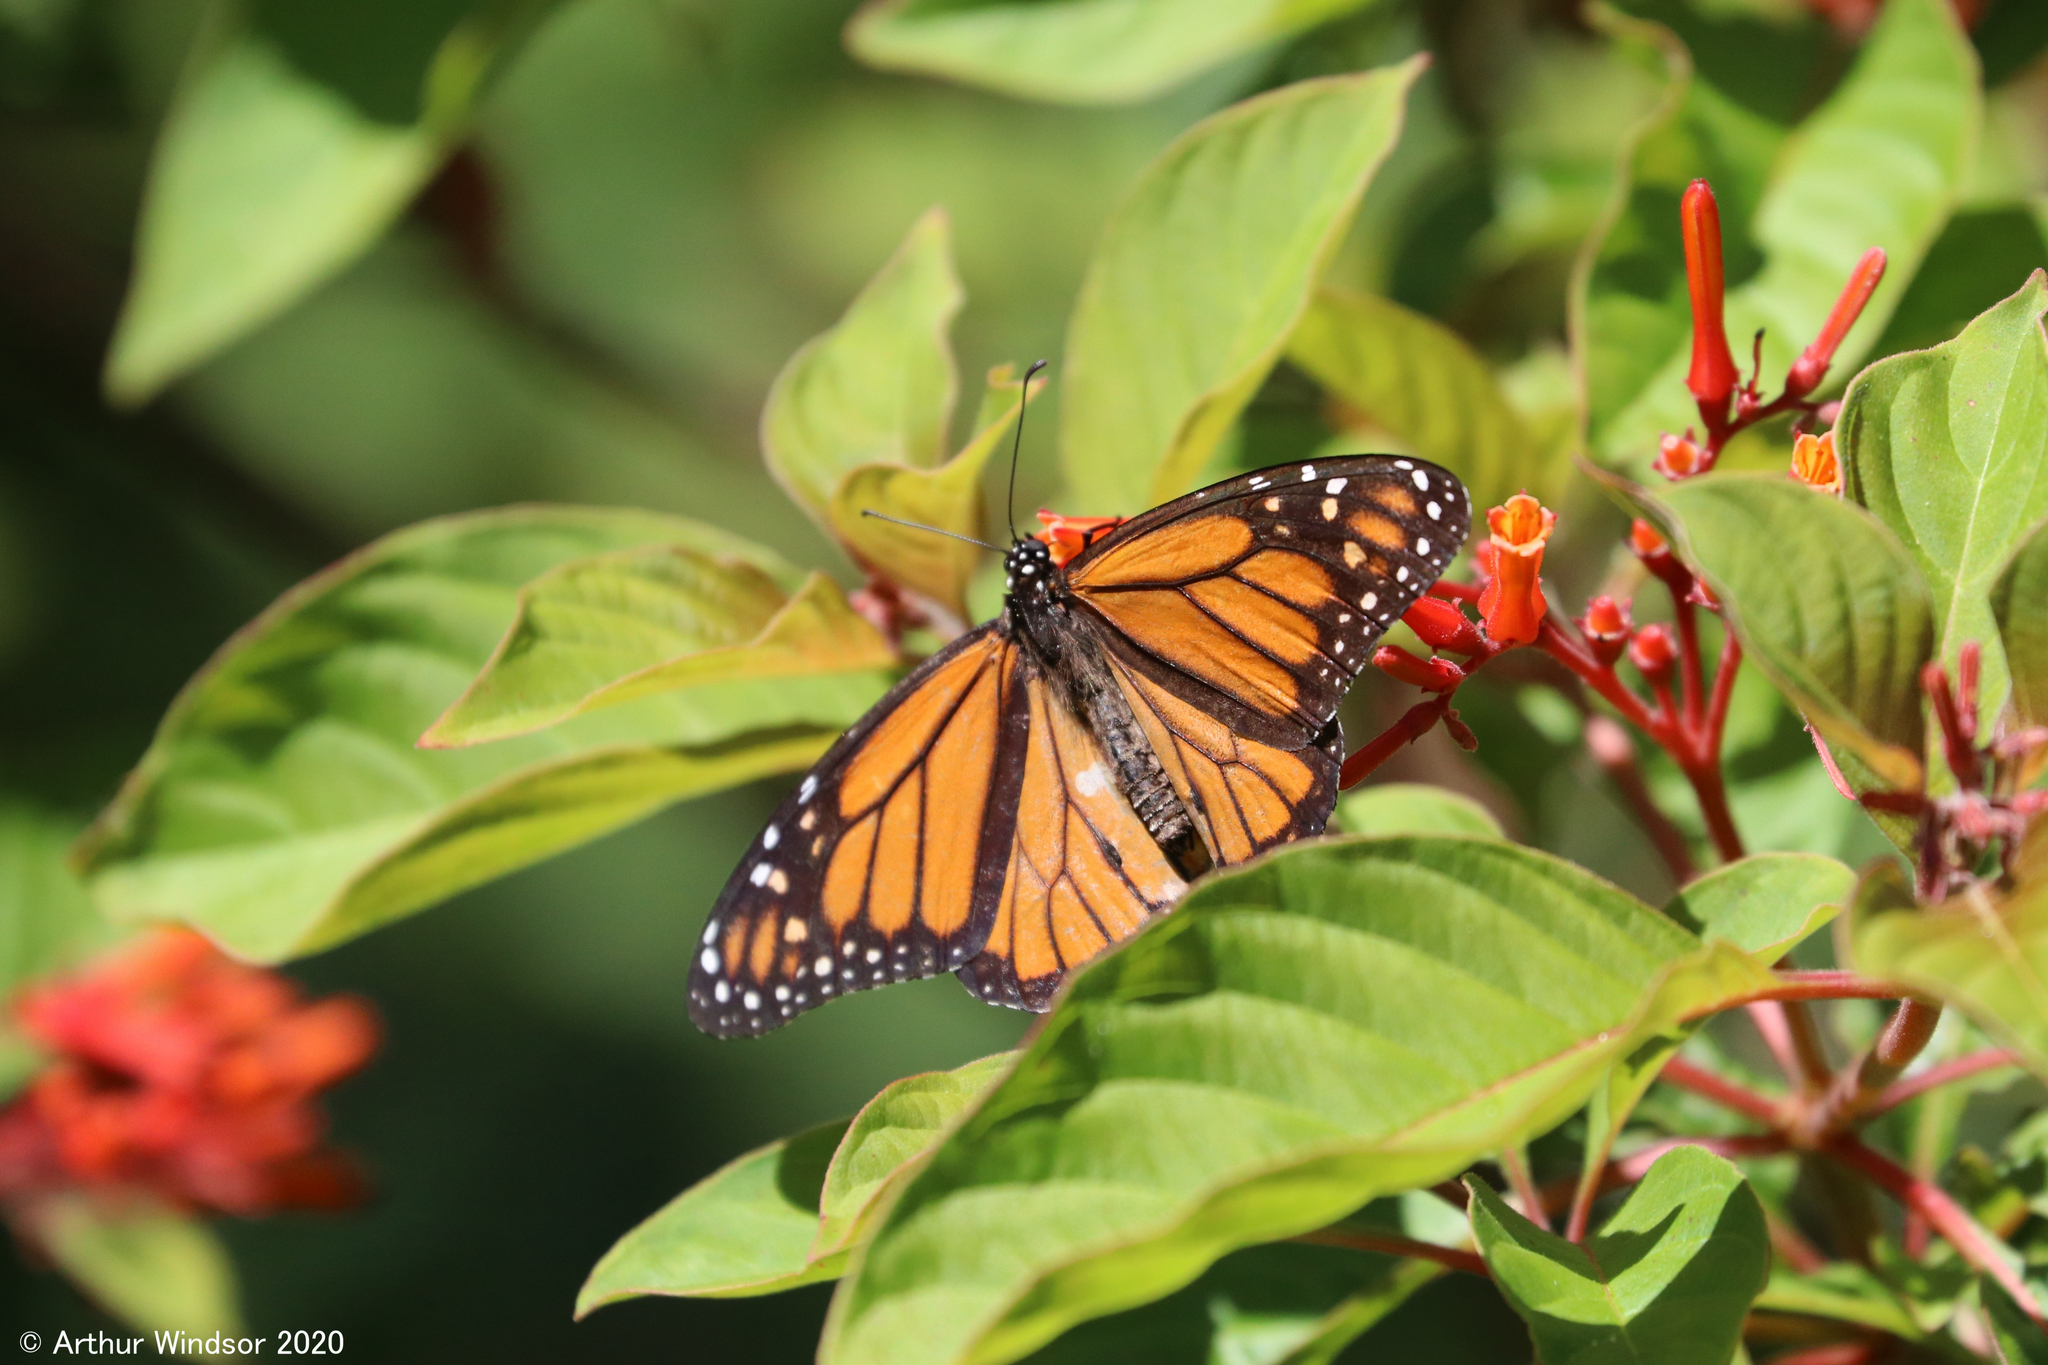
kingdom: Animalia
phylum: Arthropoda
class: Insecta
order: Lepidoptera
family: Nymphalidae
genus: Danaus
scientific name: Danaus plexippus
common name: Monarch
